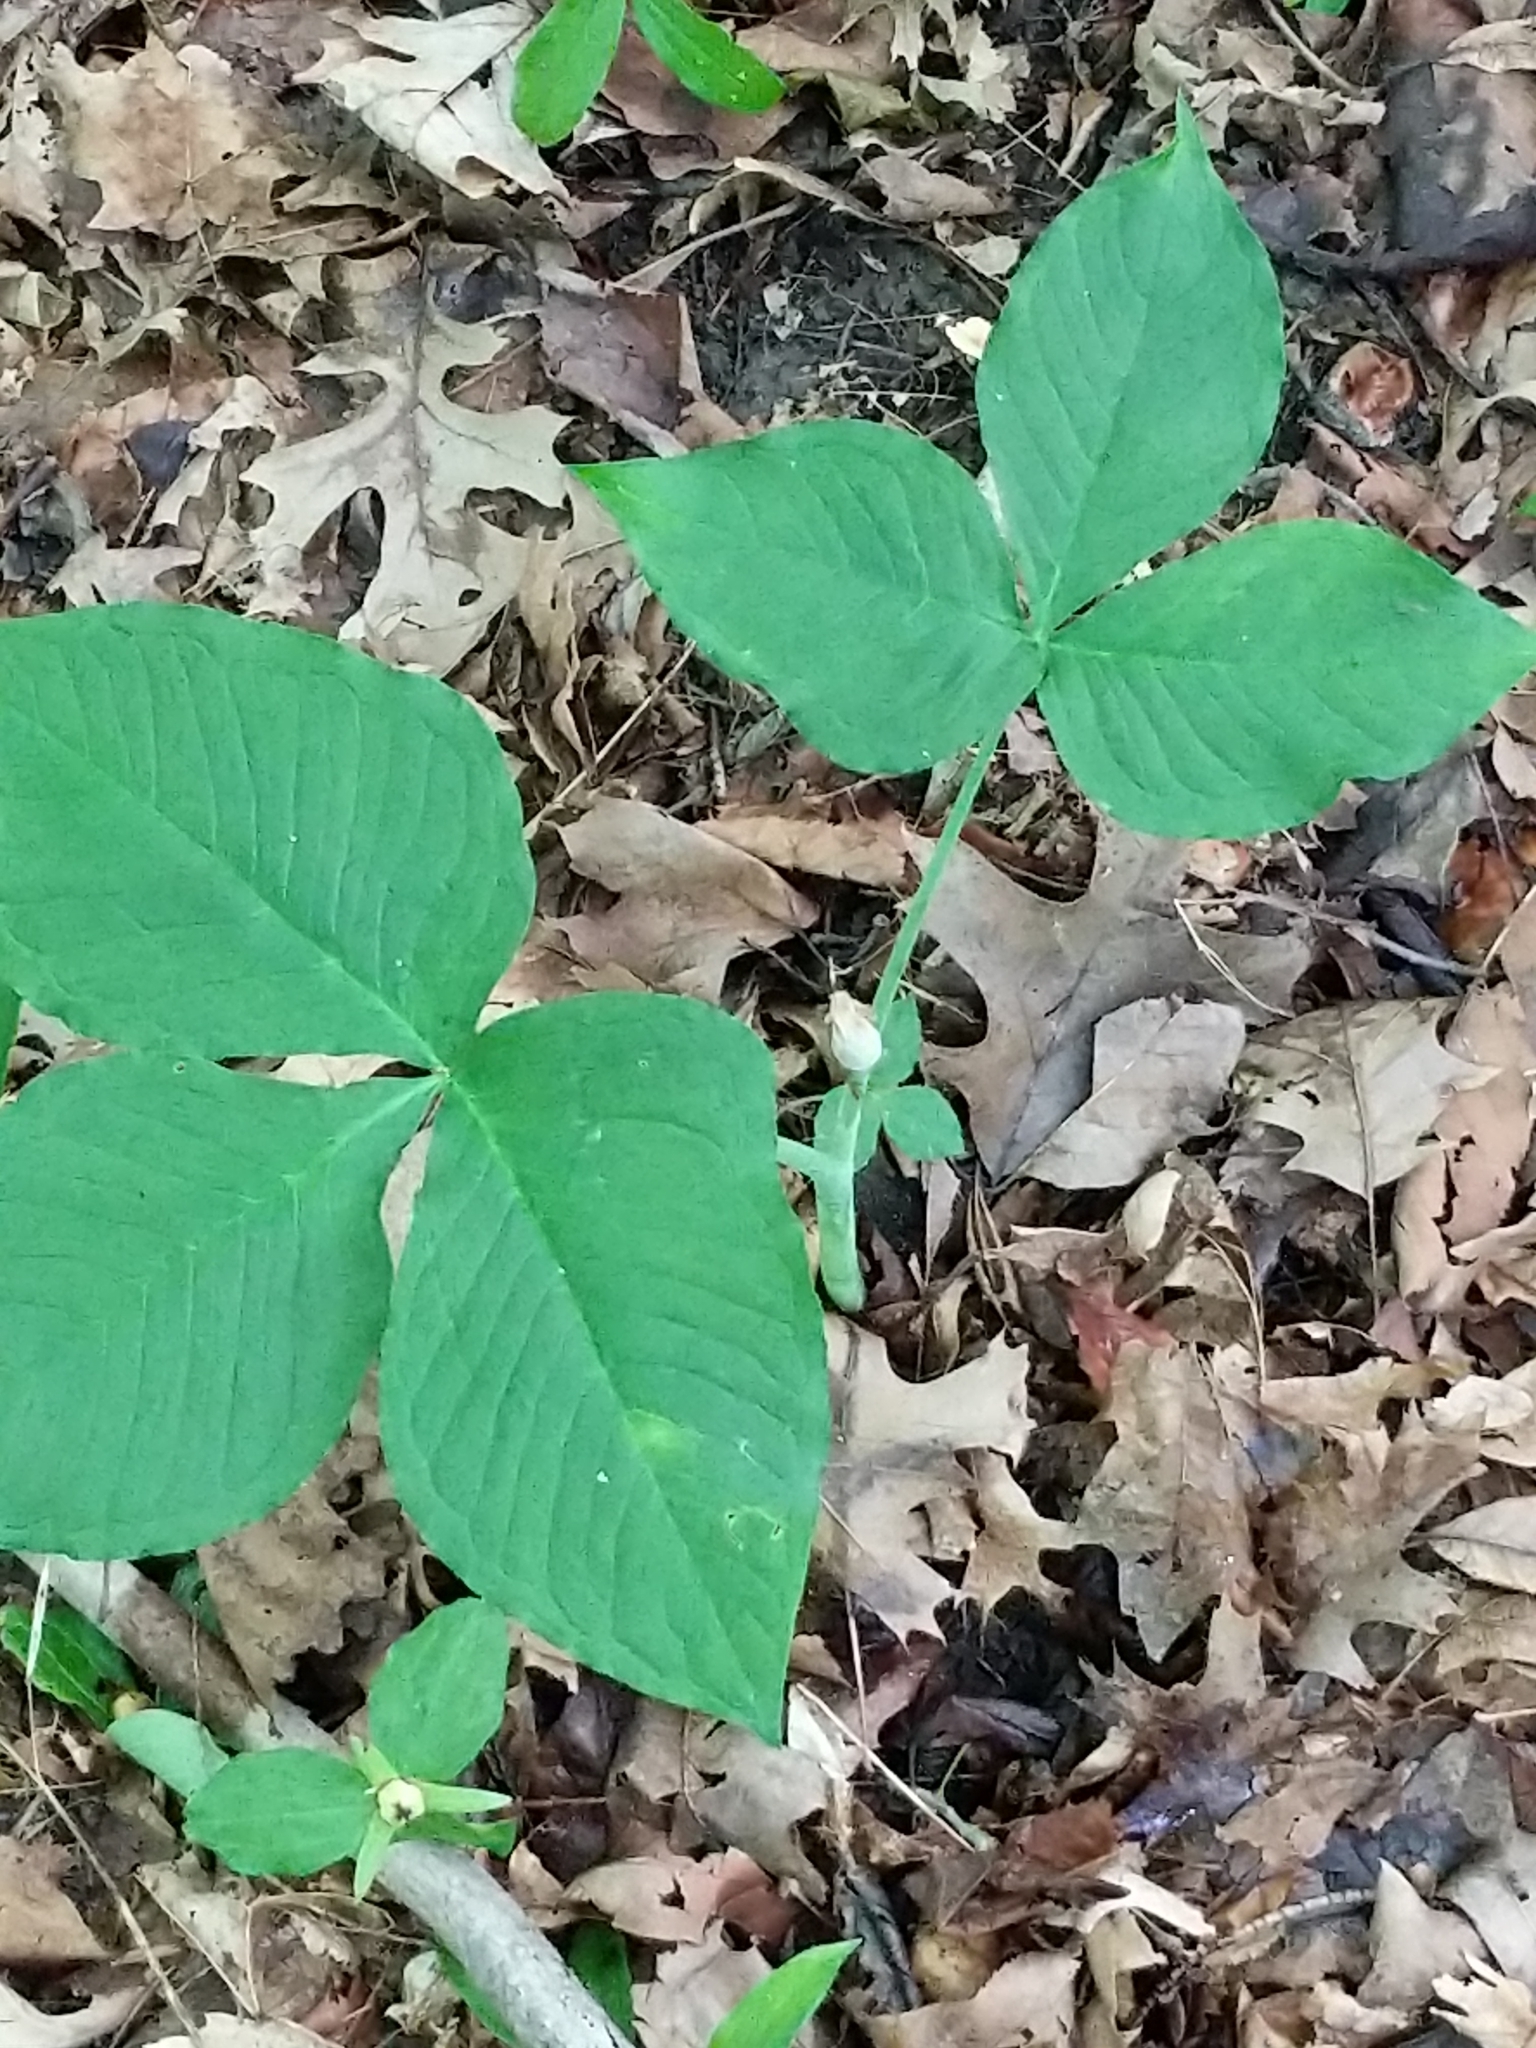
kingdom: Plantae
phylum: Tracheophyta
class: Liliopsida
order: Alismatales
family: Araceae
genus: Arisaema
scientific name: Arisaema triphyllum
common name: Jack-in-the-pulpit
